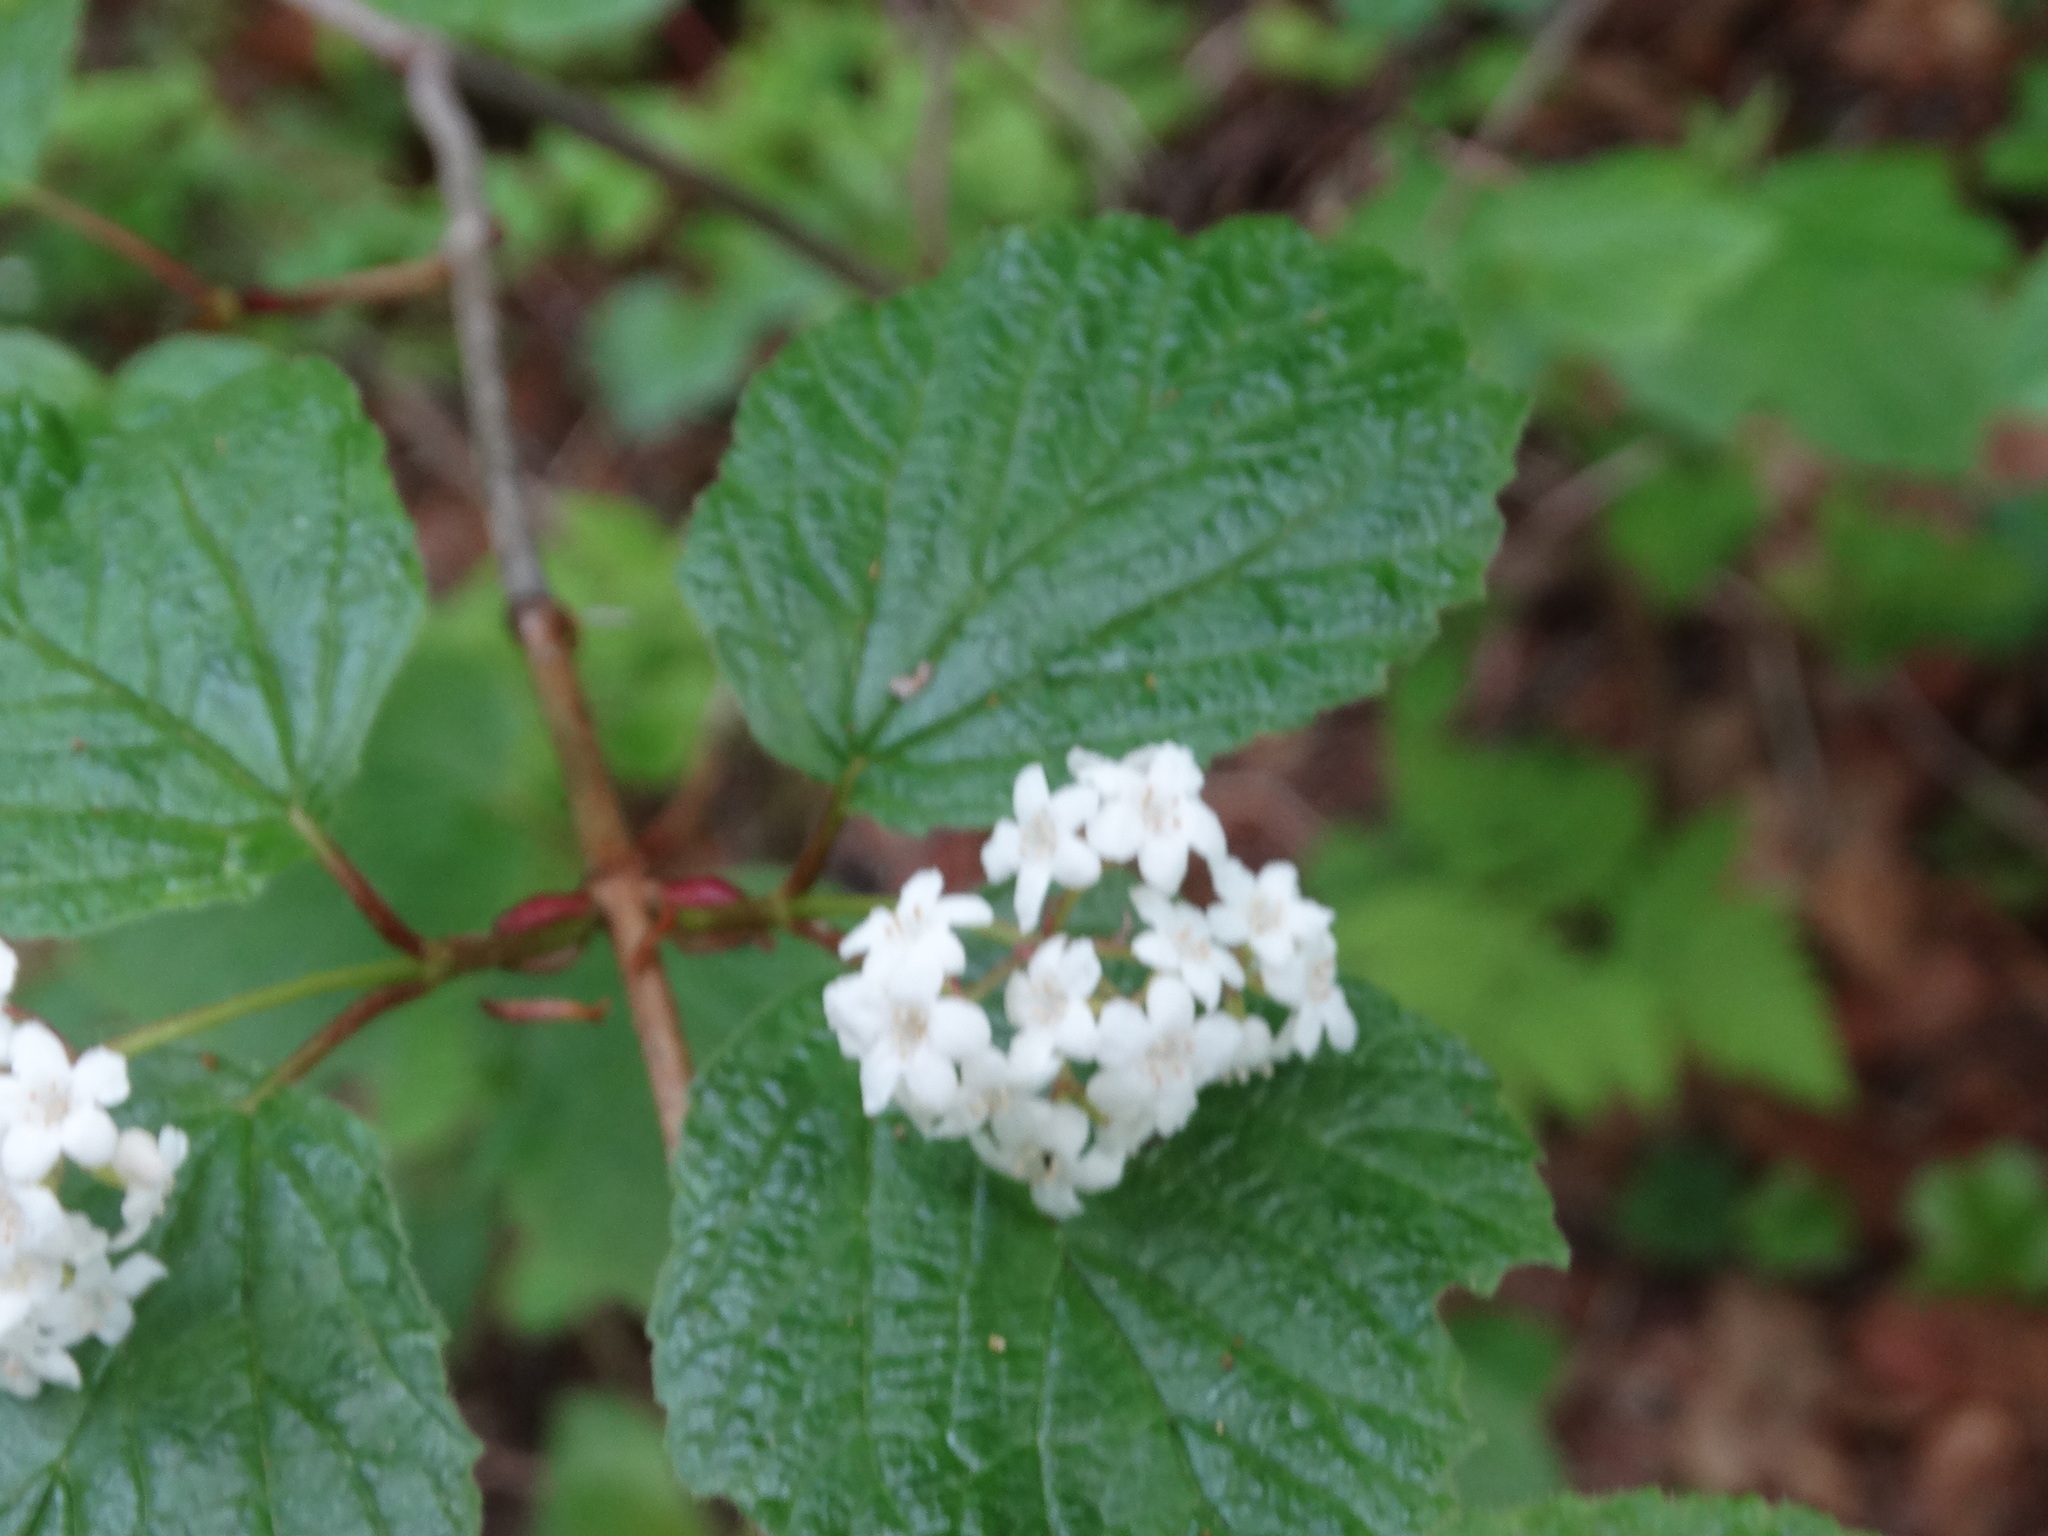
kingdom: Plantae
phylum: Tracheophyta
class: Magnoliopsida
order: Dipsacales
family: Viburnaceae
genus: Viburnum
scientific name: Viburnum edule
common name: Mooseberry
